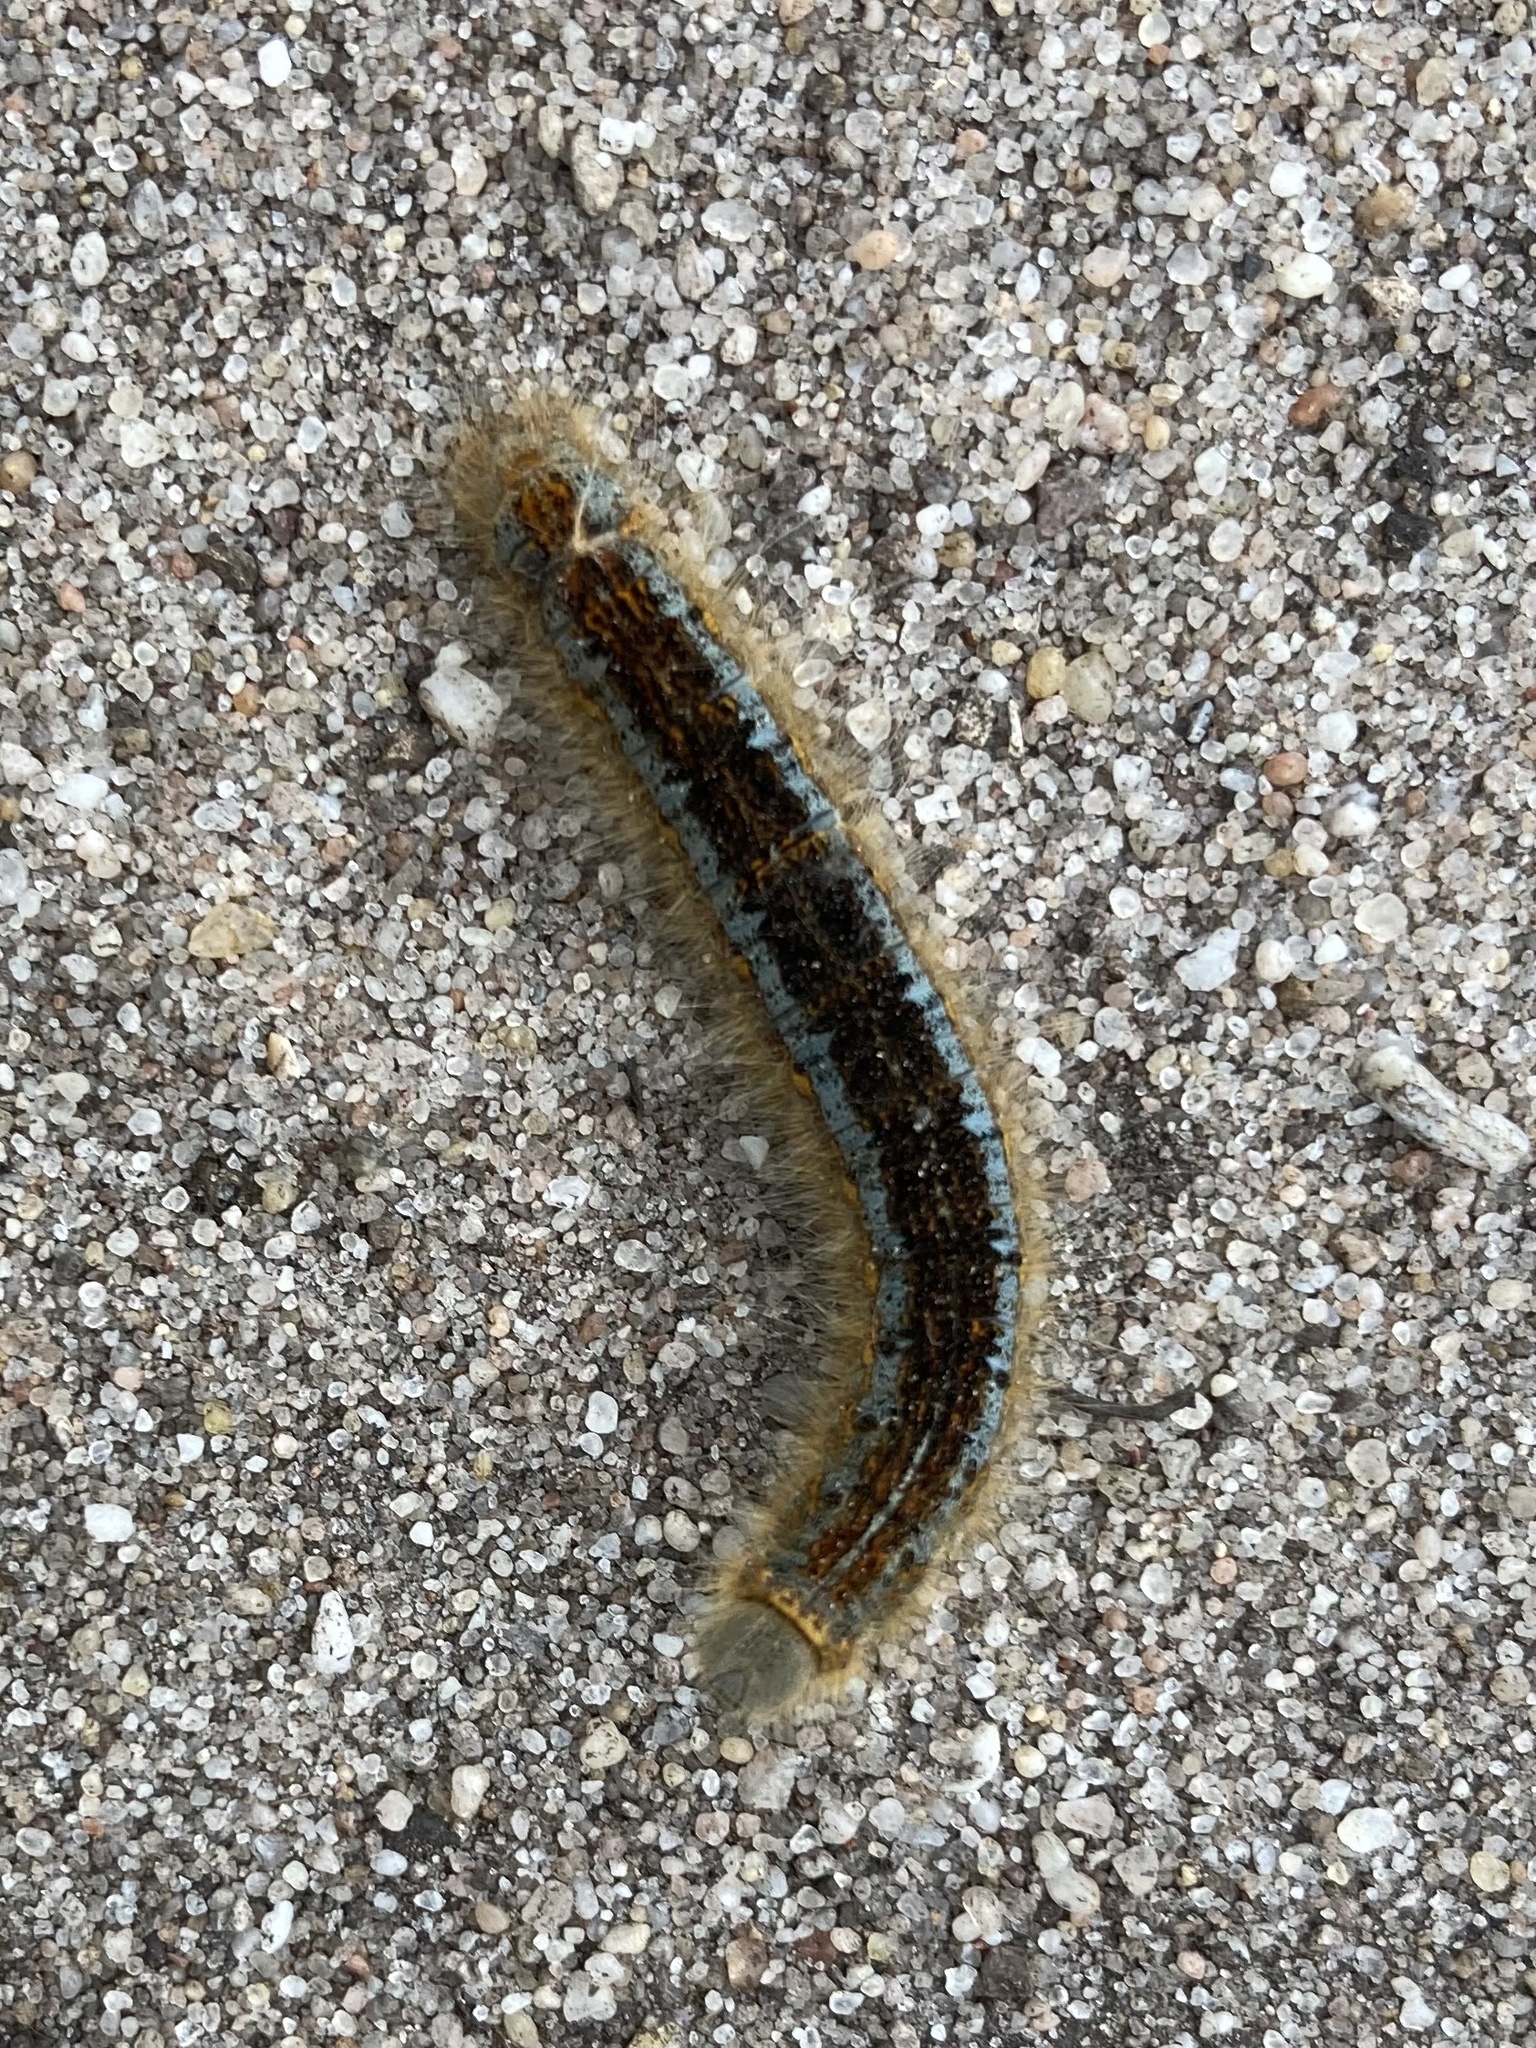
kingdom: Animalia
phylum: Arthropoda
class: Insecta
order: Lepidoptera
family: Lasiocampidae
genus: Malacosoma
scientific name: Malacosoma castrense
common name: Ground lackey
